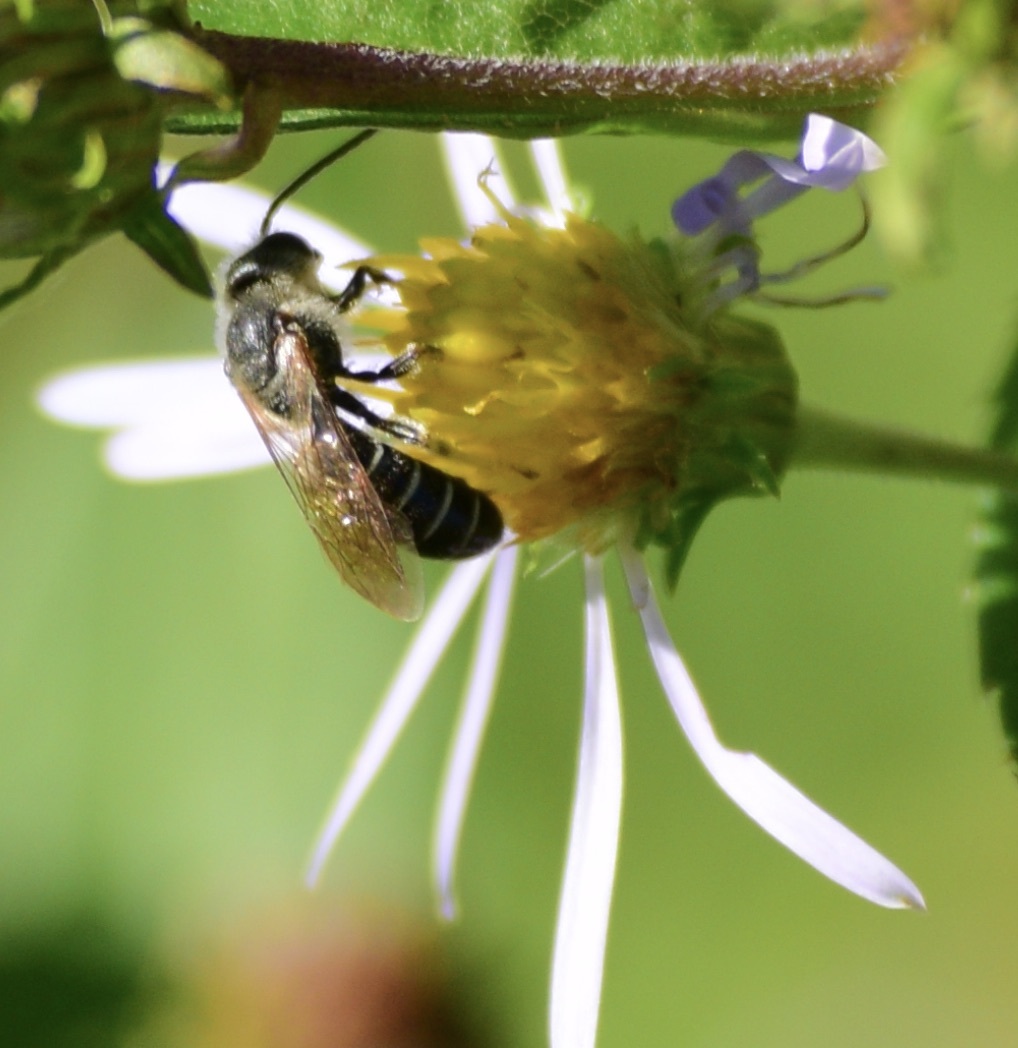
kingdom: Animalia
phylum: Arthropoda
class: Insecta
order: Hymenoptera
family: Halictidae
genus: Halictus
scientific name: Halictus rubicundus
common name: Orange-legged furrow bee
